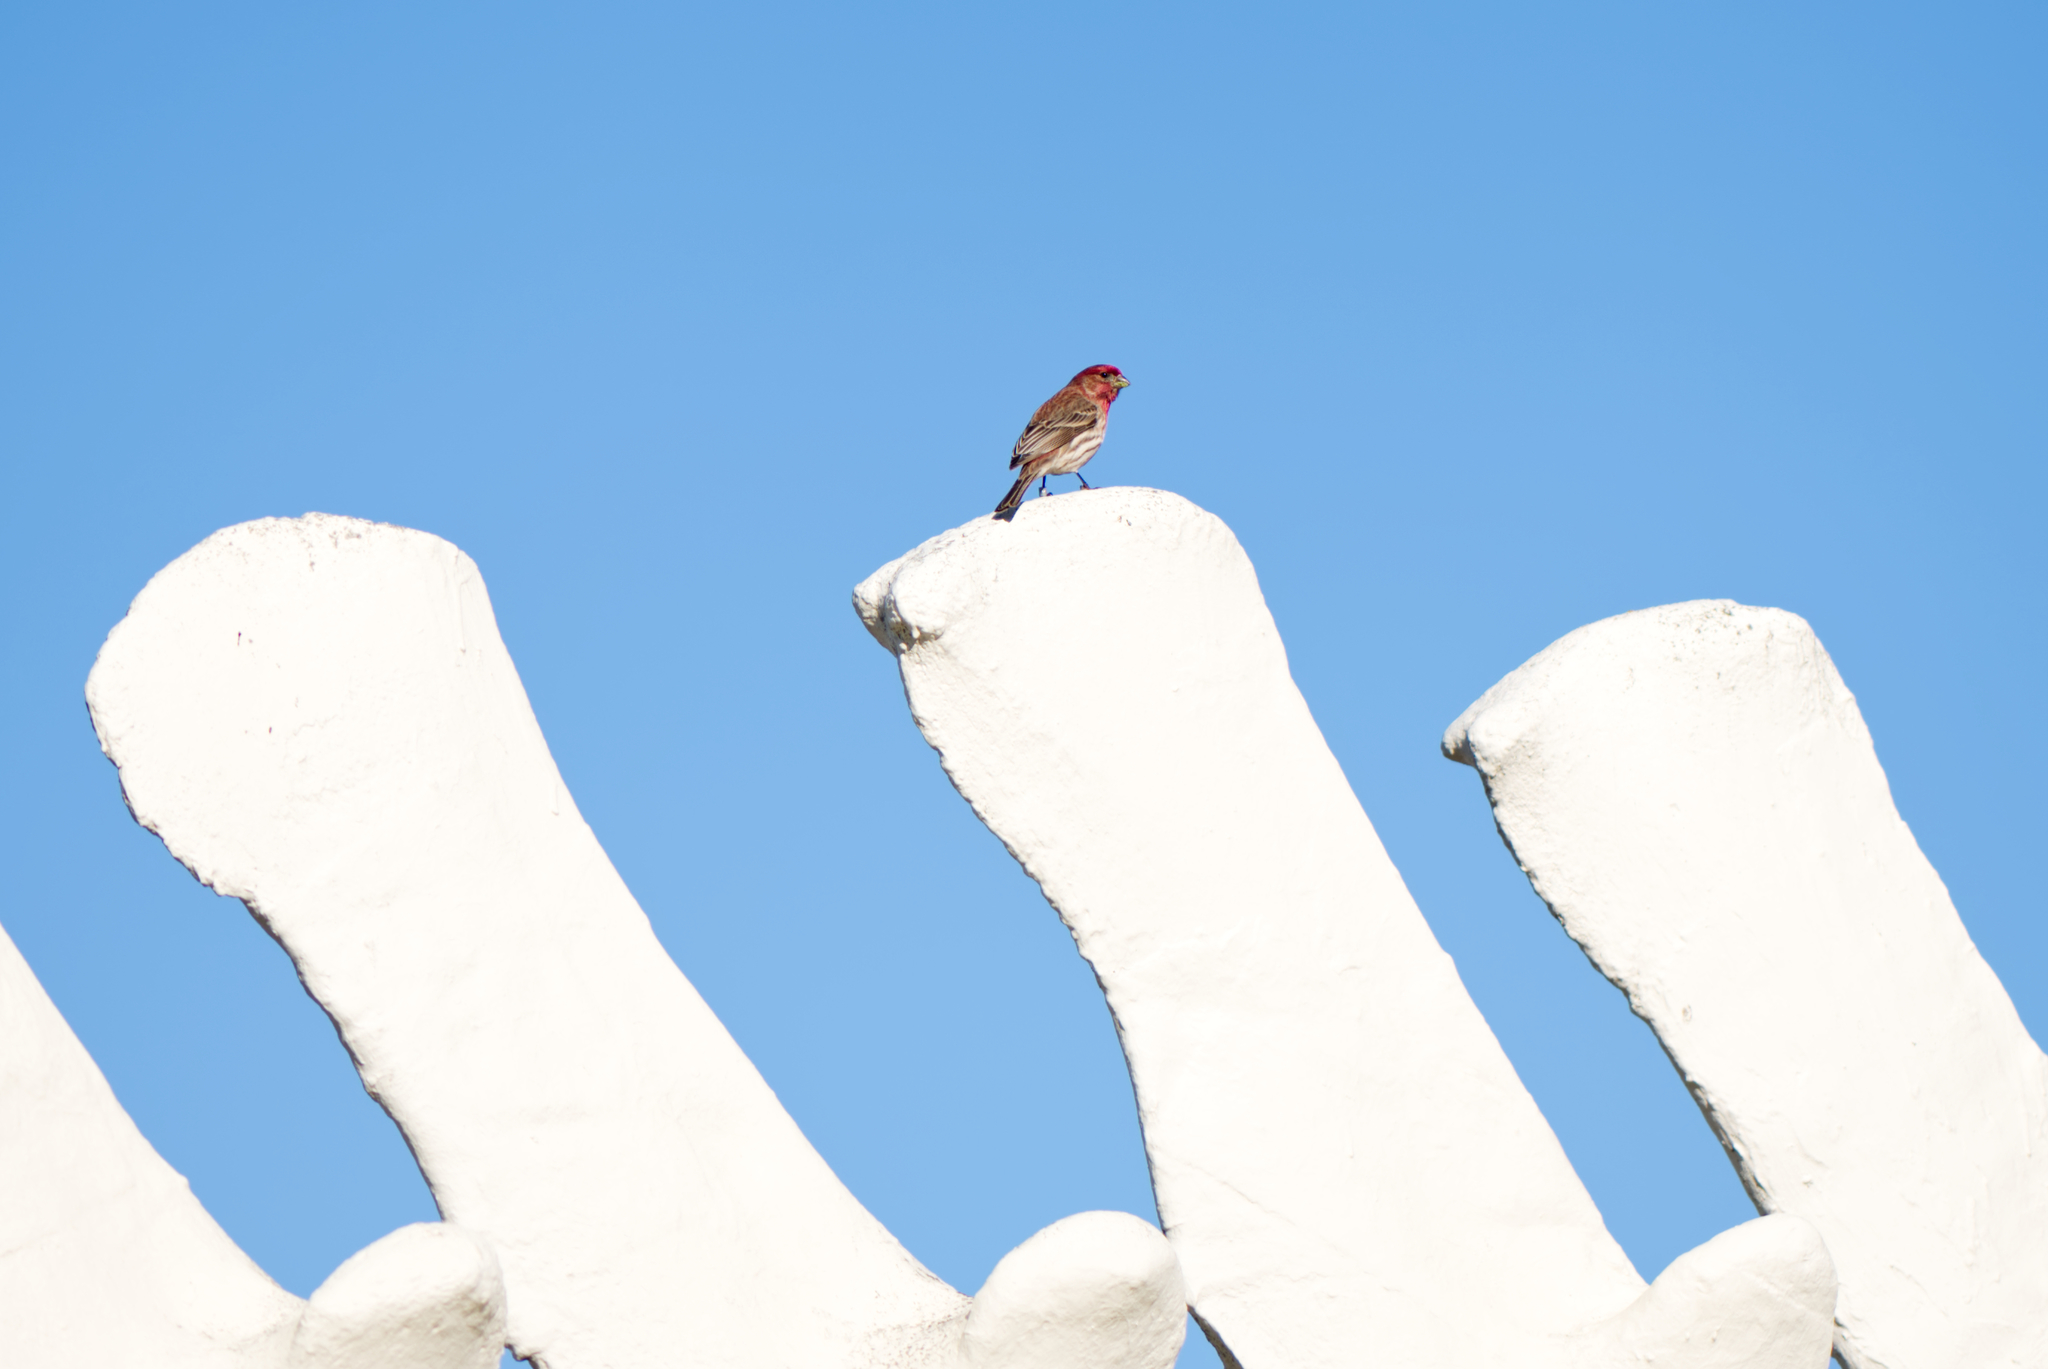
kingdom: Animalia
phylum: Chordata
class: Aves
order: Passeriformes
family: Fringillidae
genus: Haemorhous
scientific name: Haemorhous mexicanus
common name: House finch
